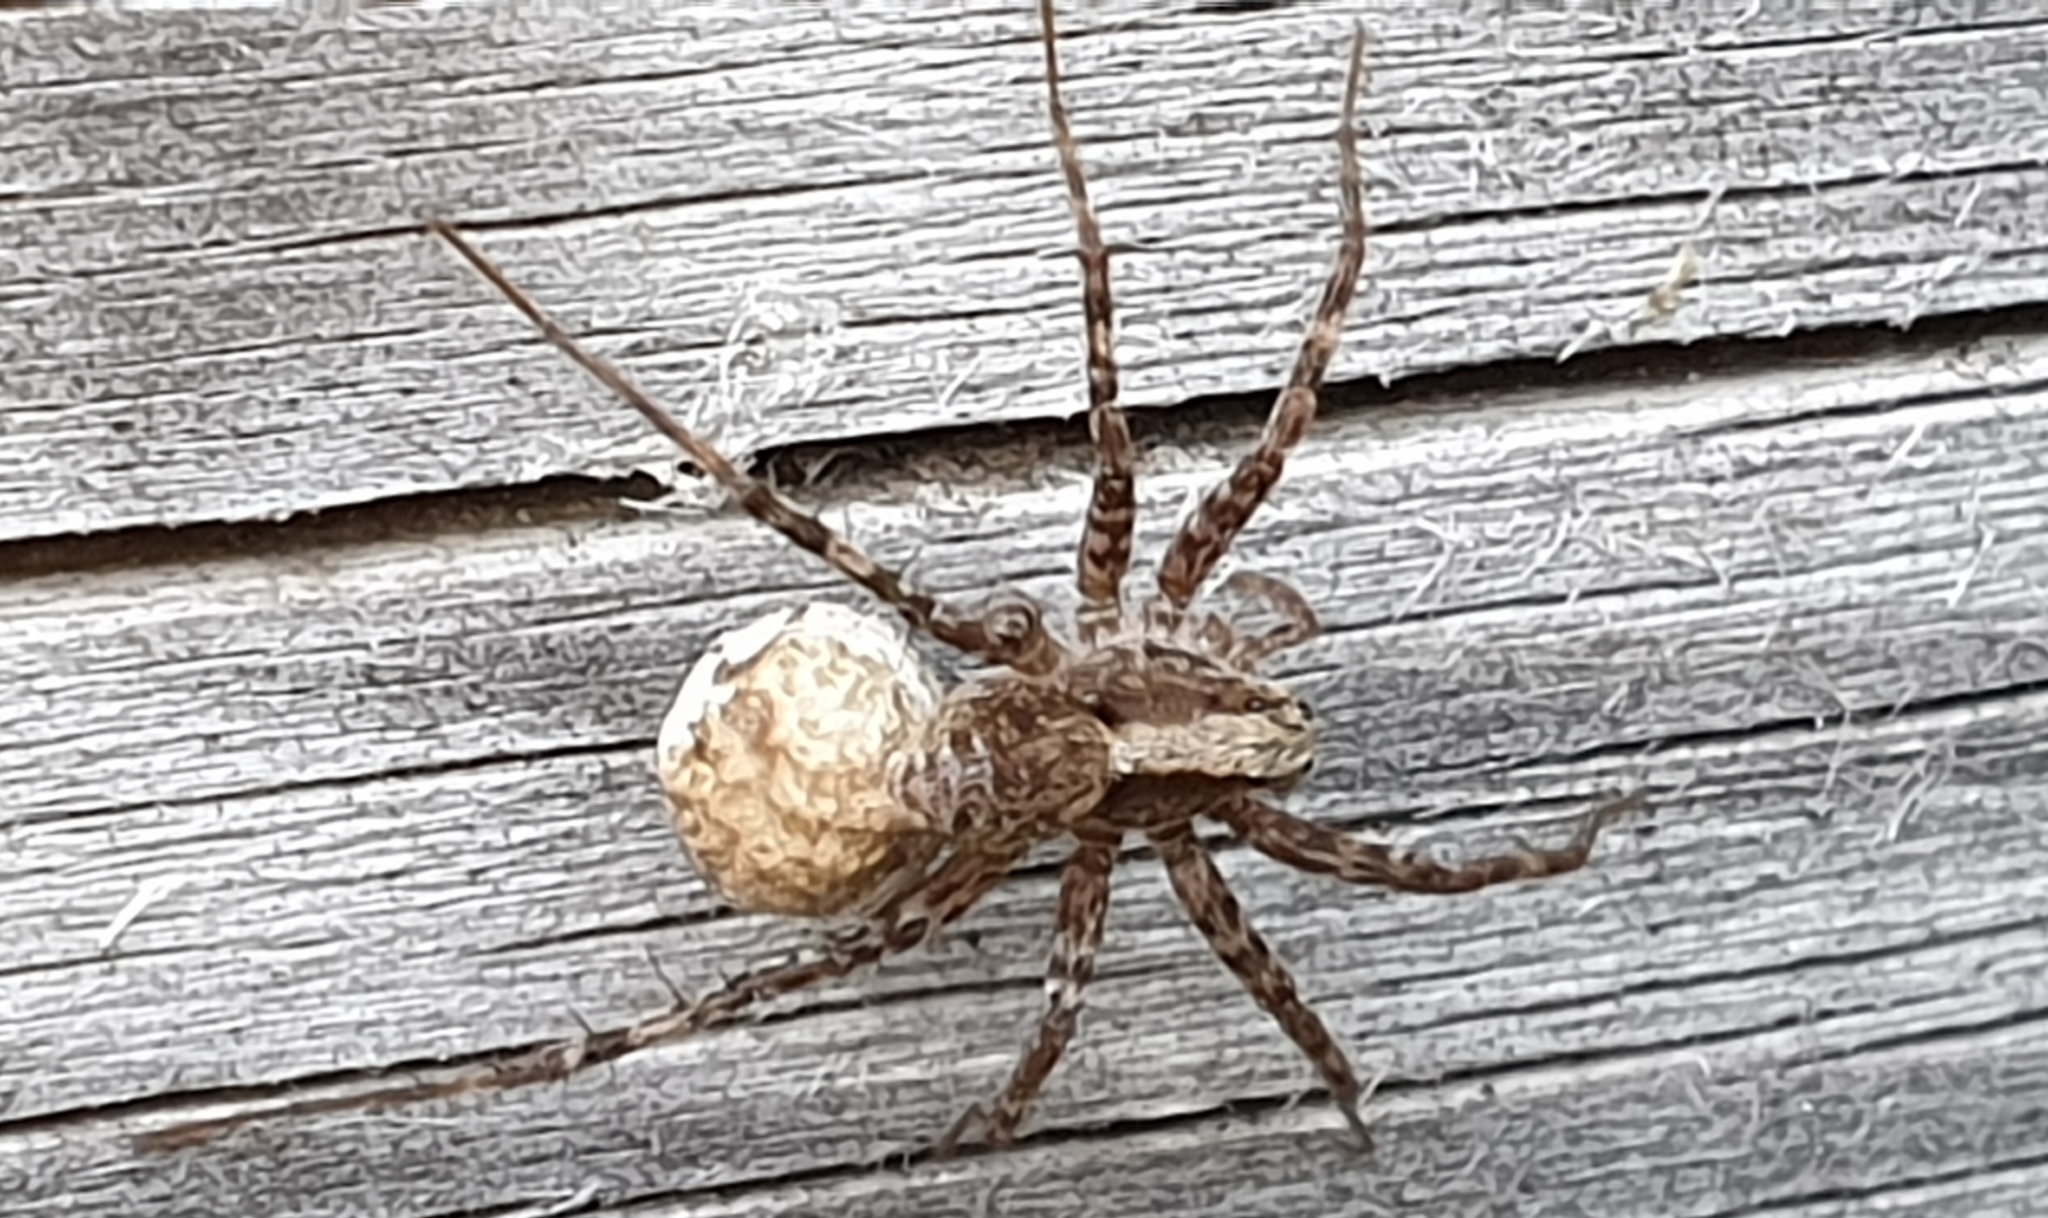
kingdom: Animalia
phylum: Arthropoda
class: Arachnida
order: Araneae
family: Lycosidae
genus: Pardosa
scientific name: Pardosa
